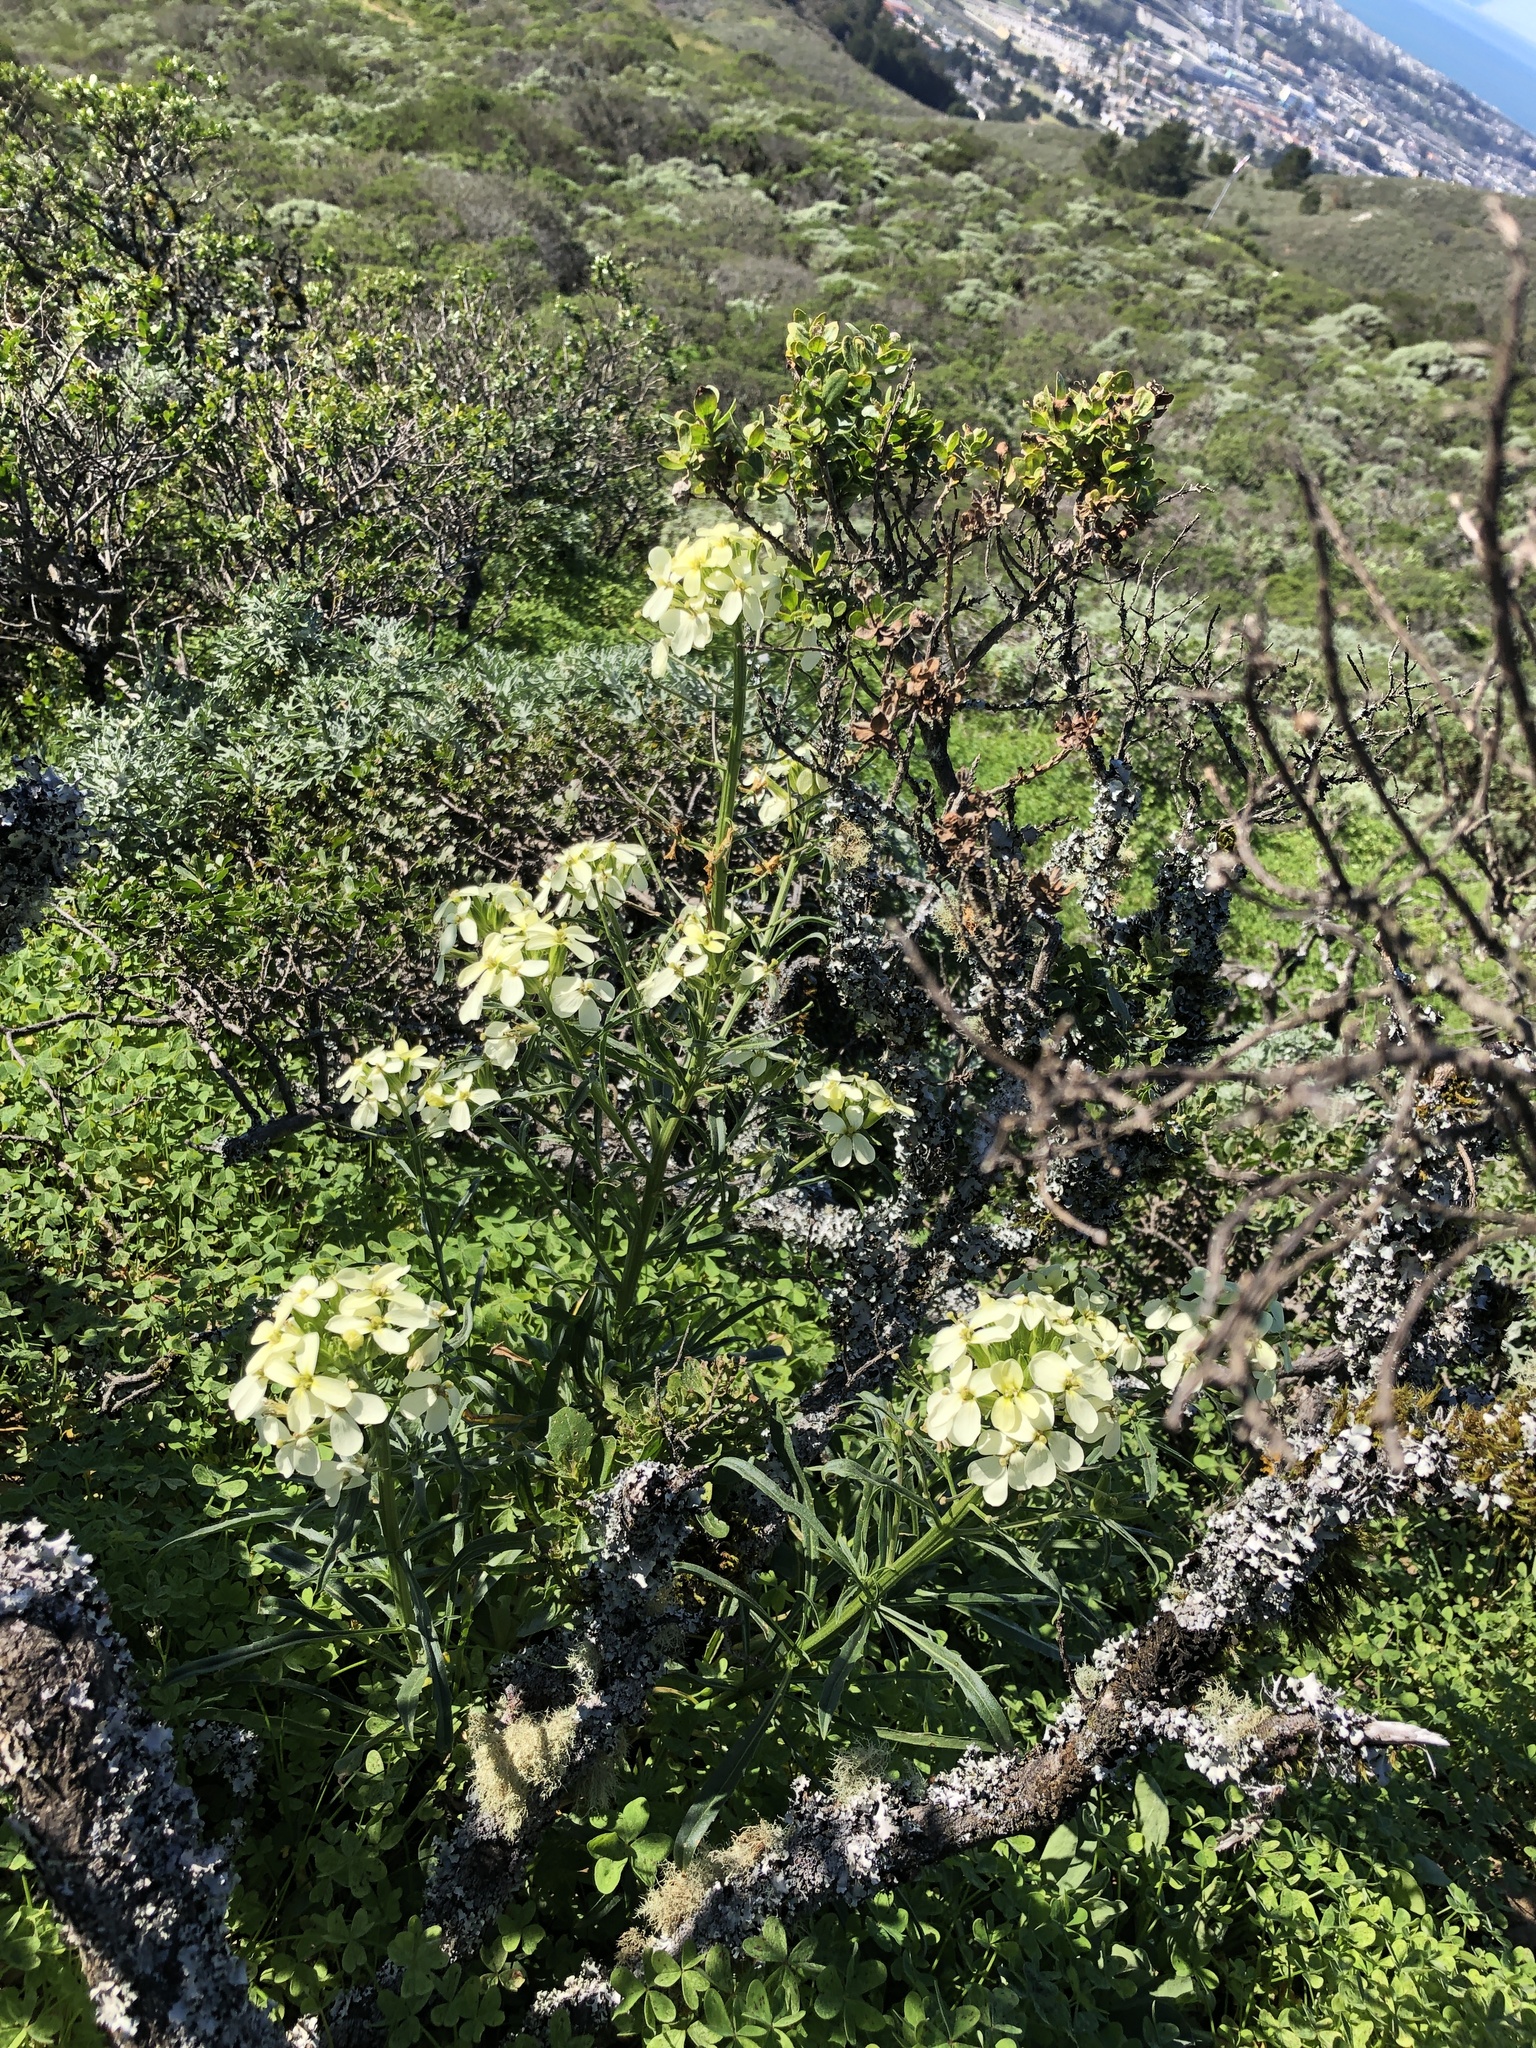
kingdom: Plantae
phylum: Tracheophyta
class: Magnoliopsida
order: Brassicales
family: Brassicaceae
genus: Erysimum
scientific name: Erysimum franciscanum
